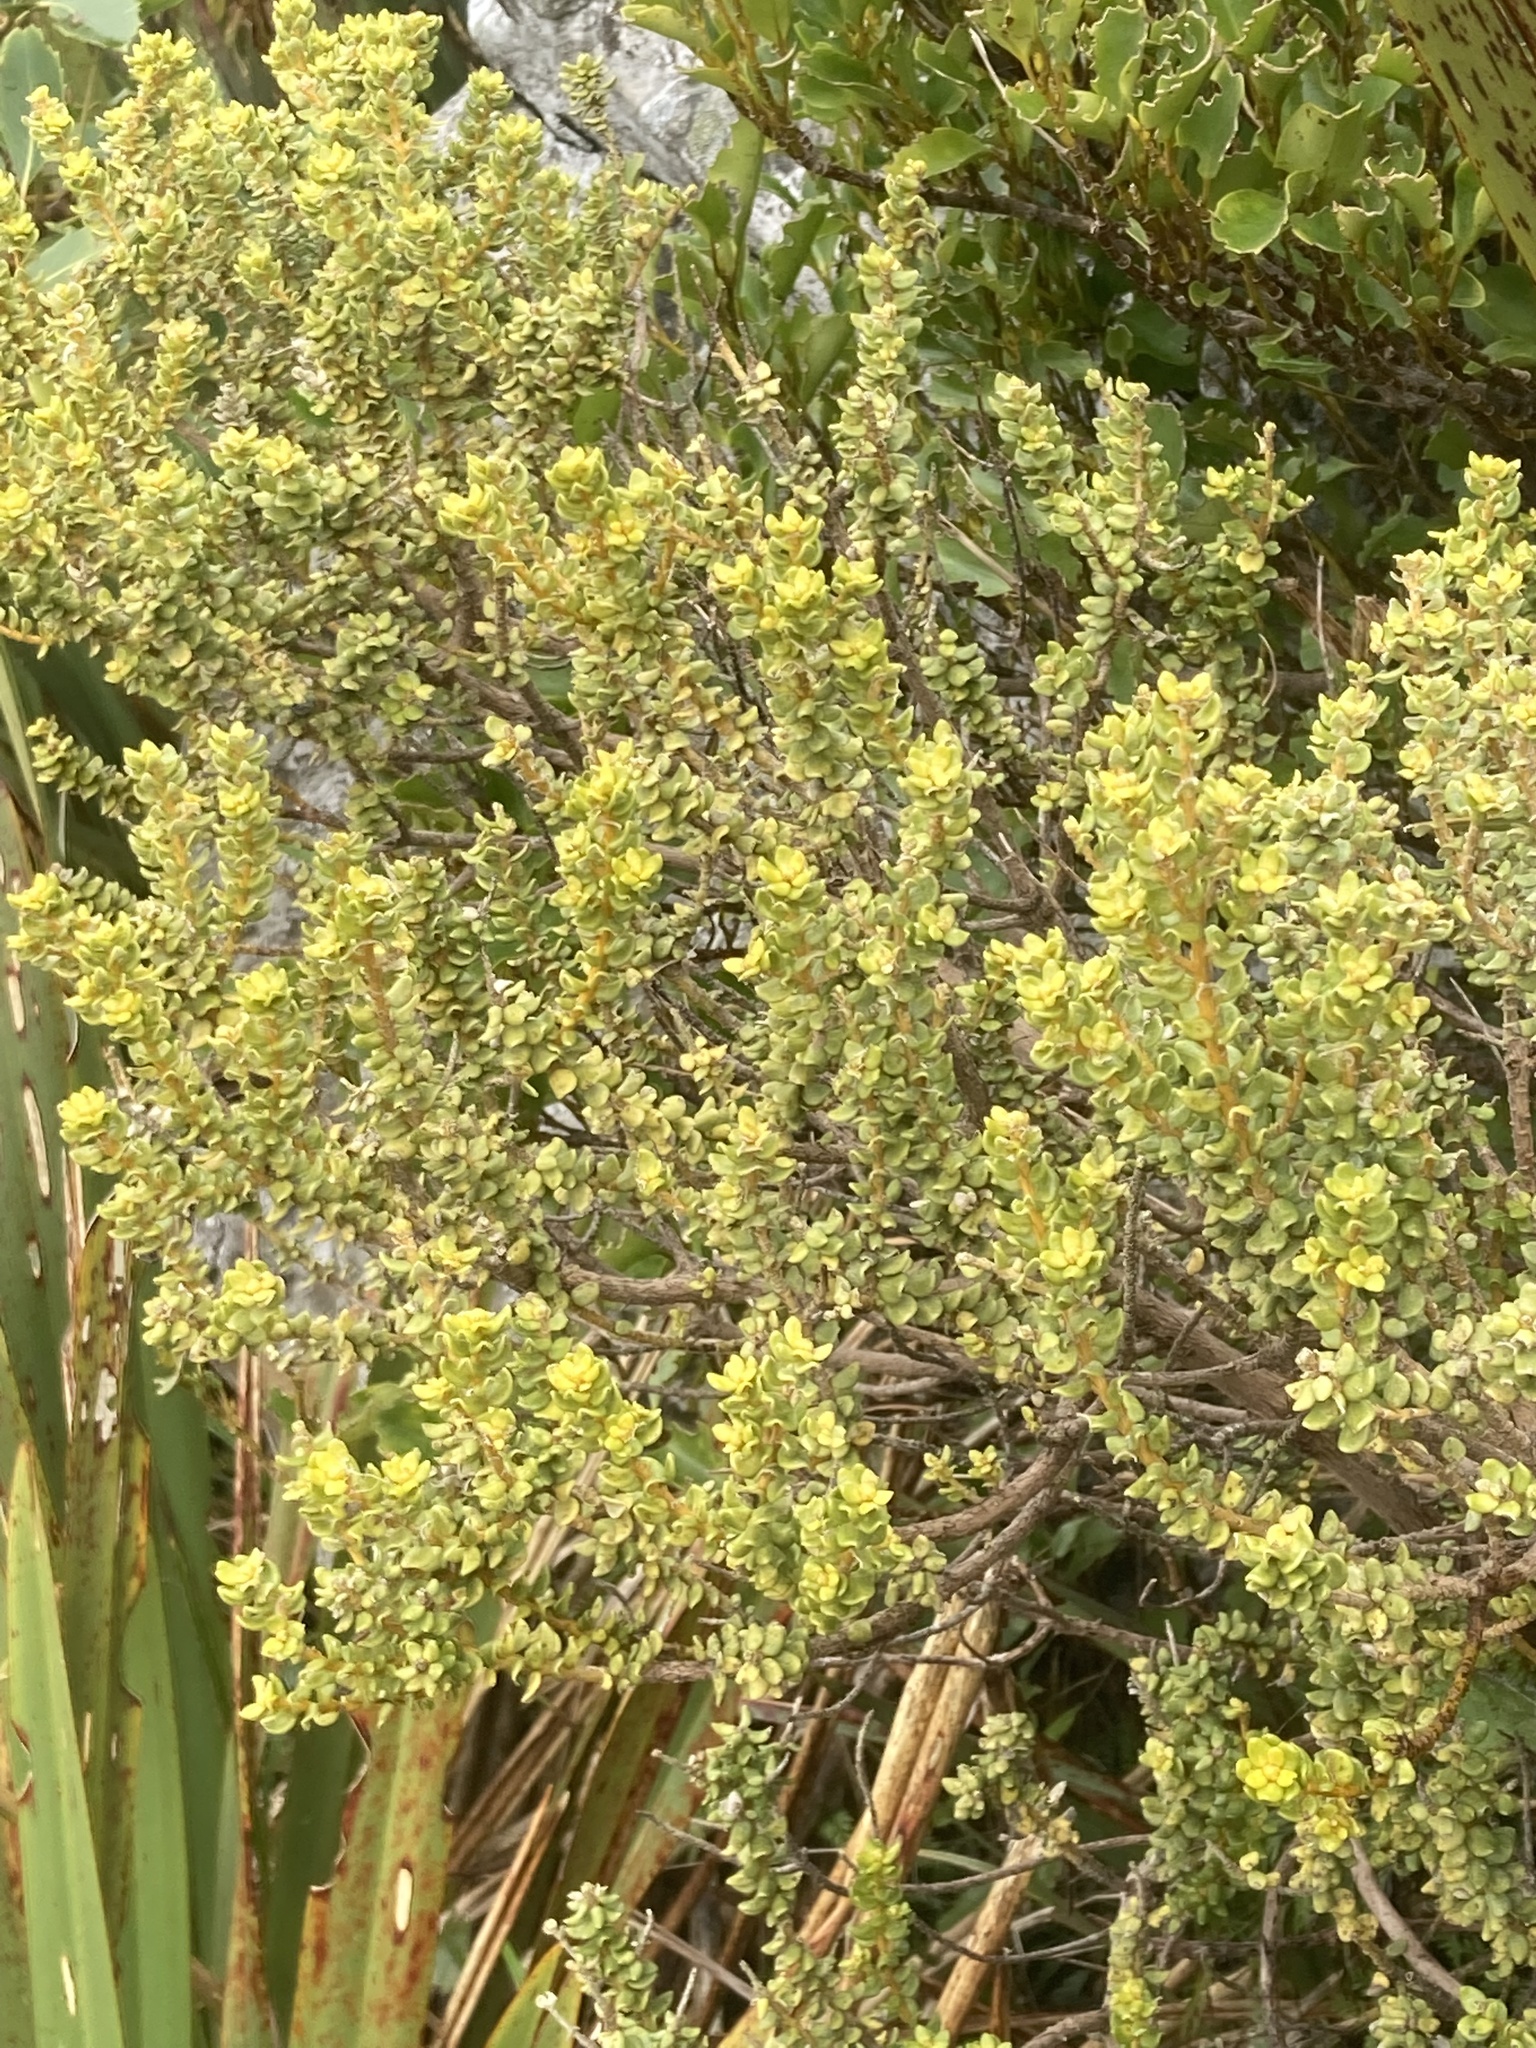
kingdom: Plantae
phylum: Tracheophyta
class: Magnoliopsida
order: Asterales
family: Asteraceae
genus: Olearia
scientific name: Olearia nummularifolia
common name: Sticky daisybush
